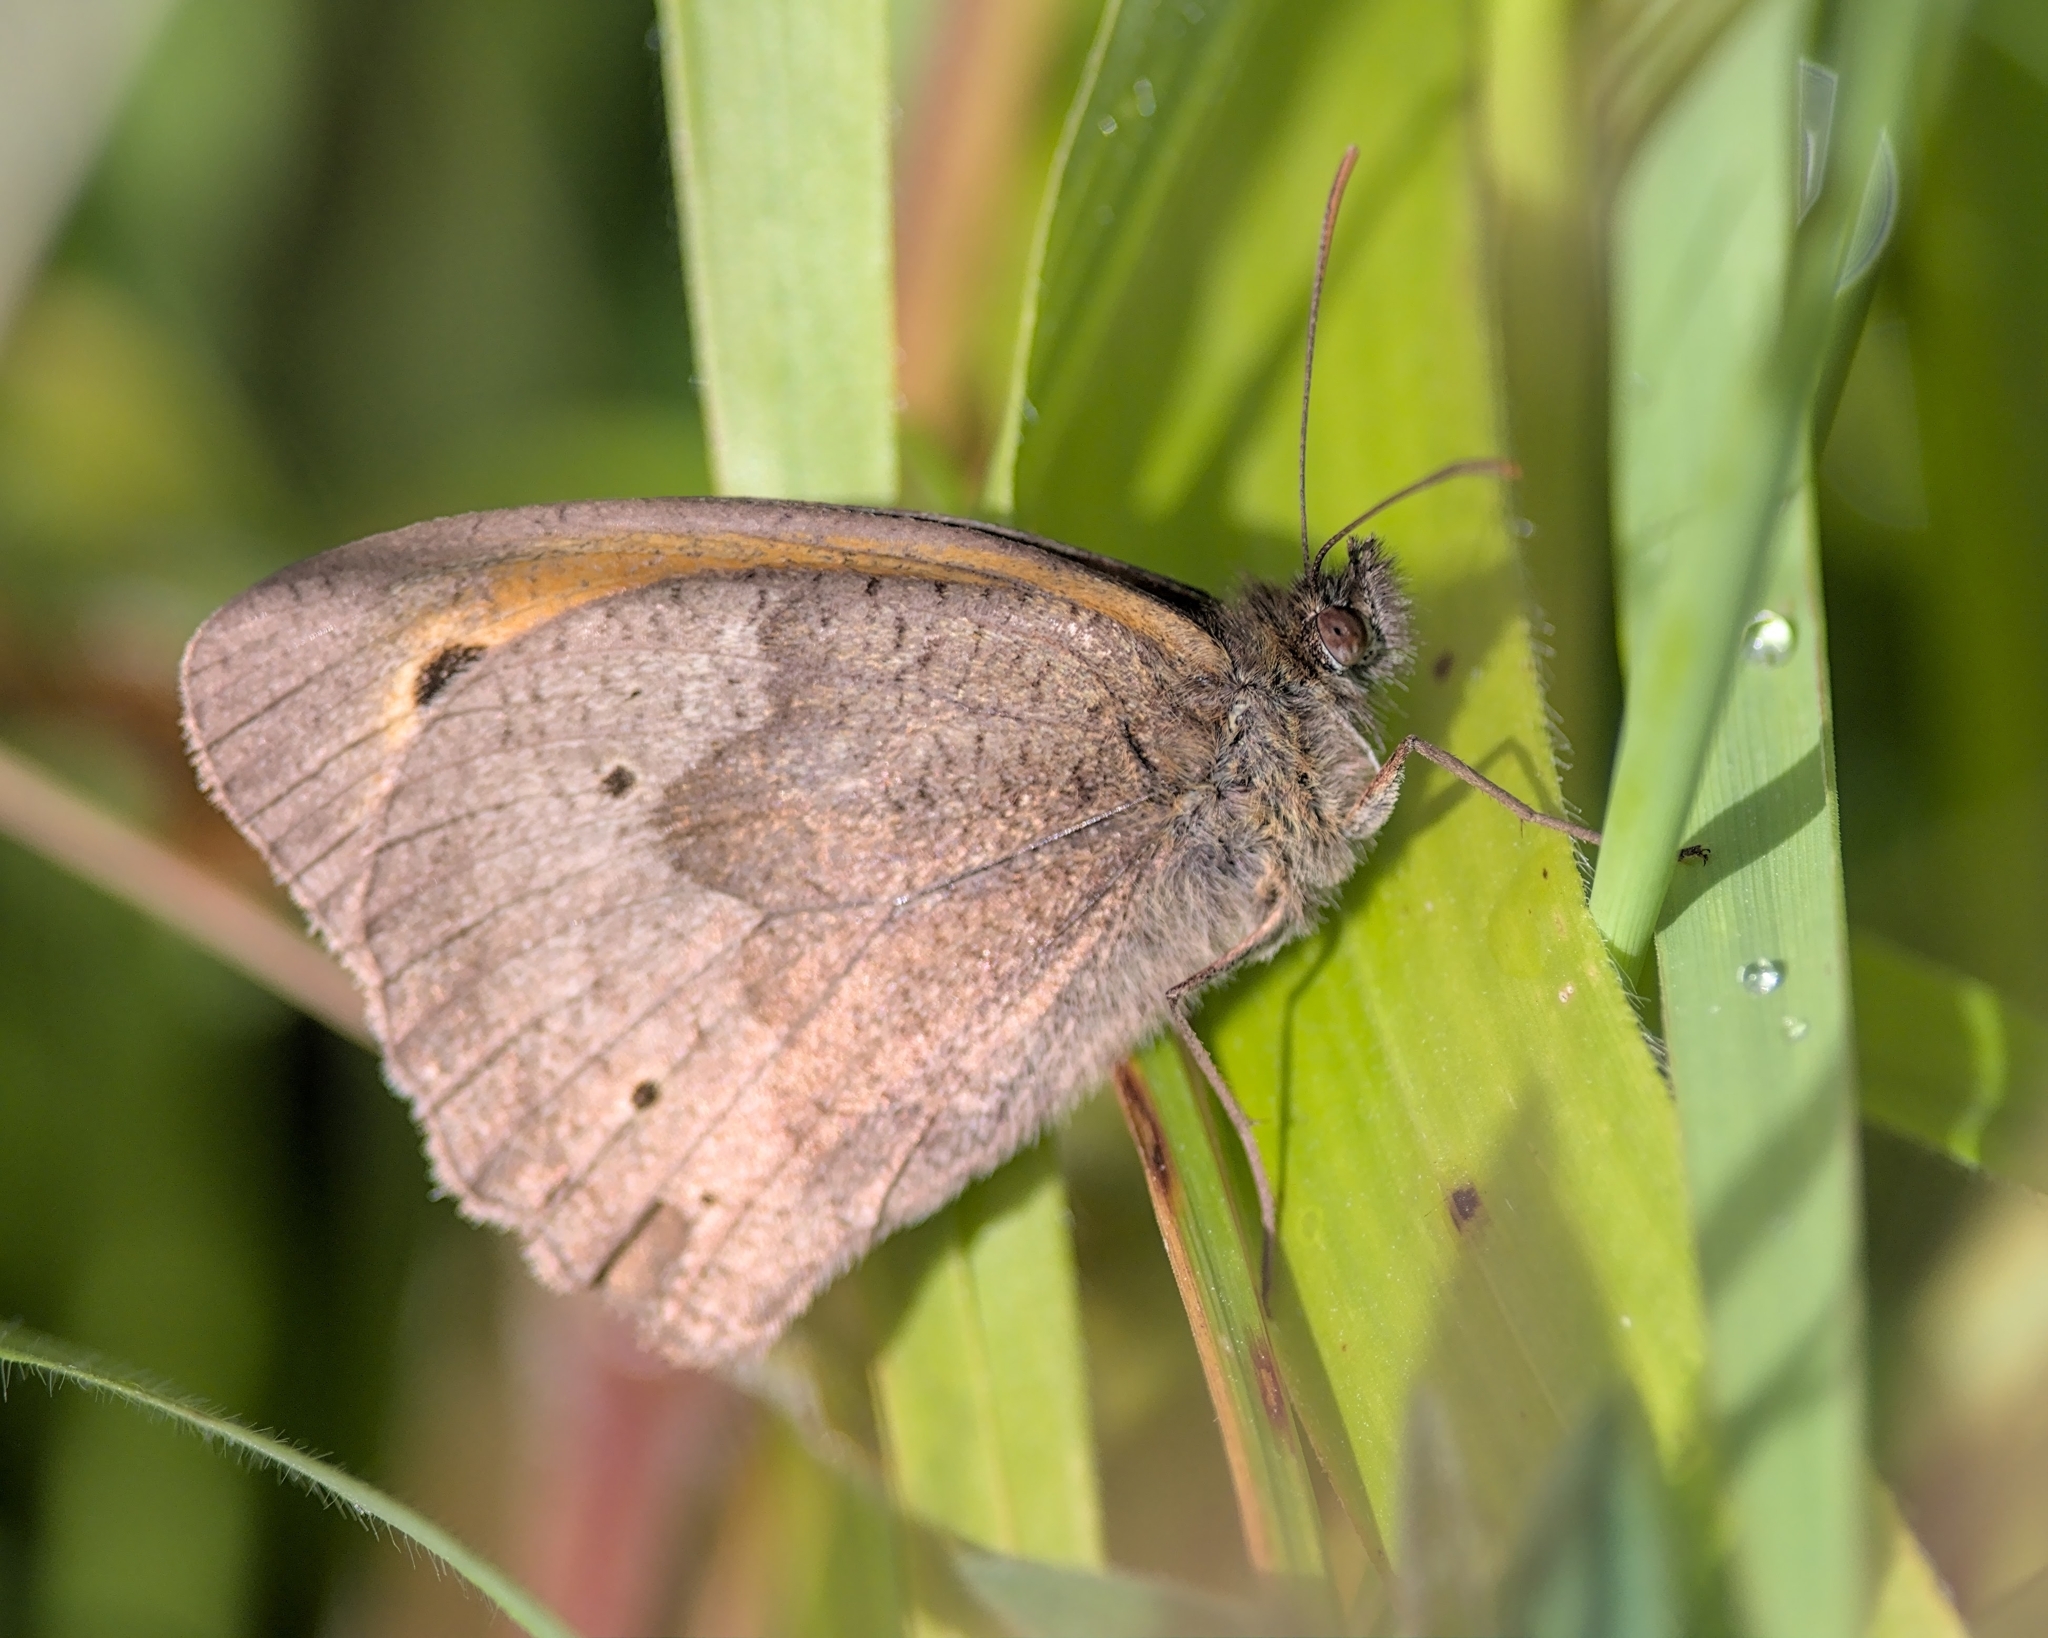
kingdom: Animalia
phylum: Arthropoda
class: Insecta
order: Lepidoptera
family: Nymphalidae
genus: Maniola
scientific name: Maniola jurtina
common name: Meadow brown
